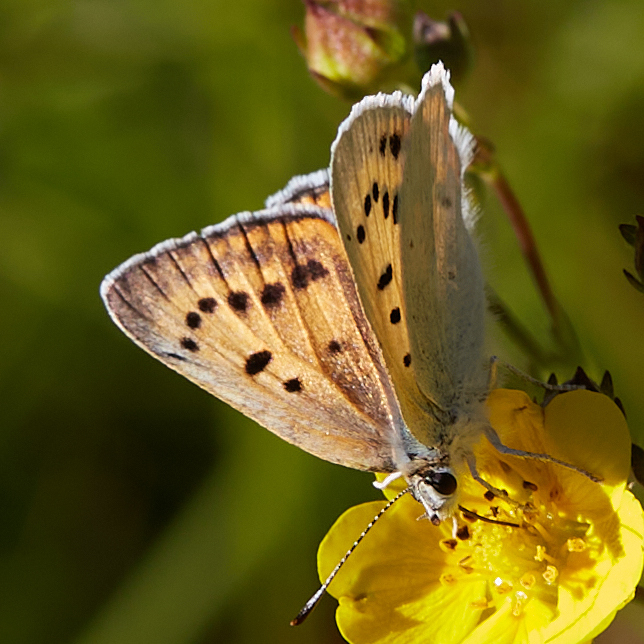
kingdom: Animalia
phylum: Arthropoda
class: Insecta
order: Lepidoptera
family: Lycaenidae
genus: Tharsalea
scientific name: Tharsalea rubidus
